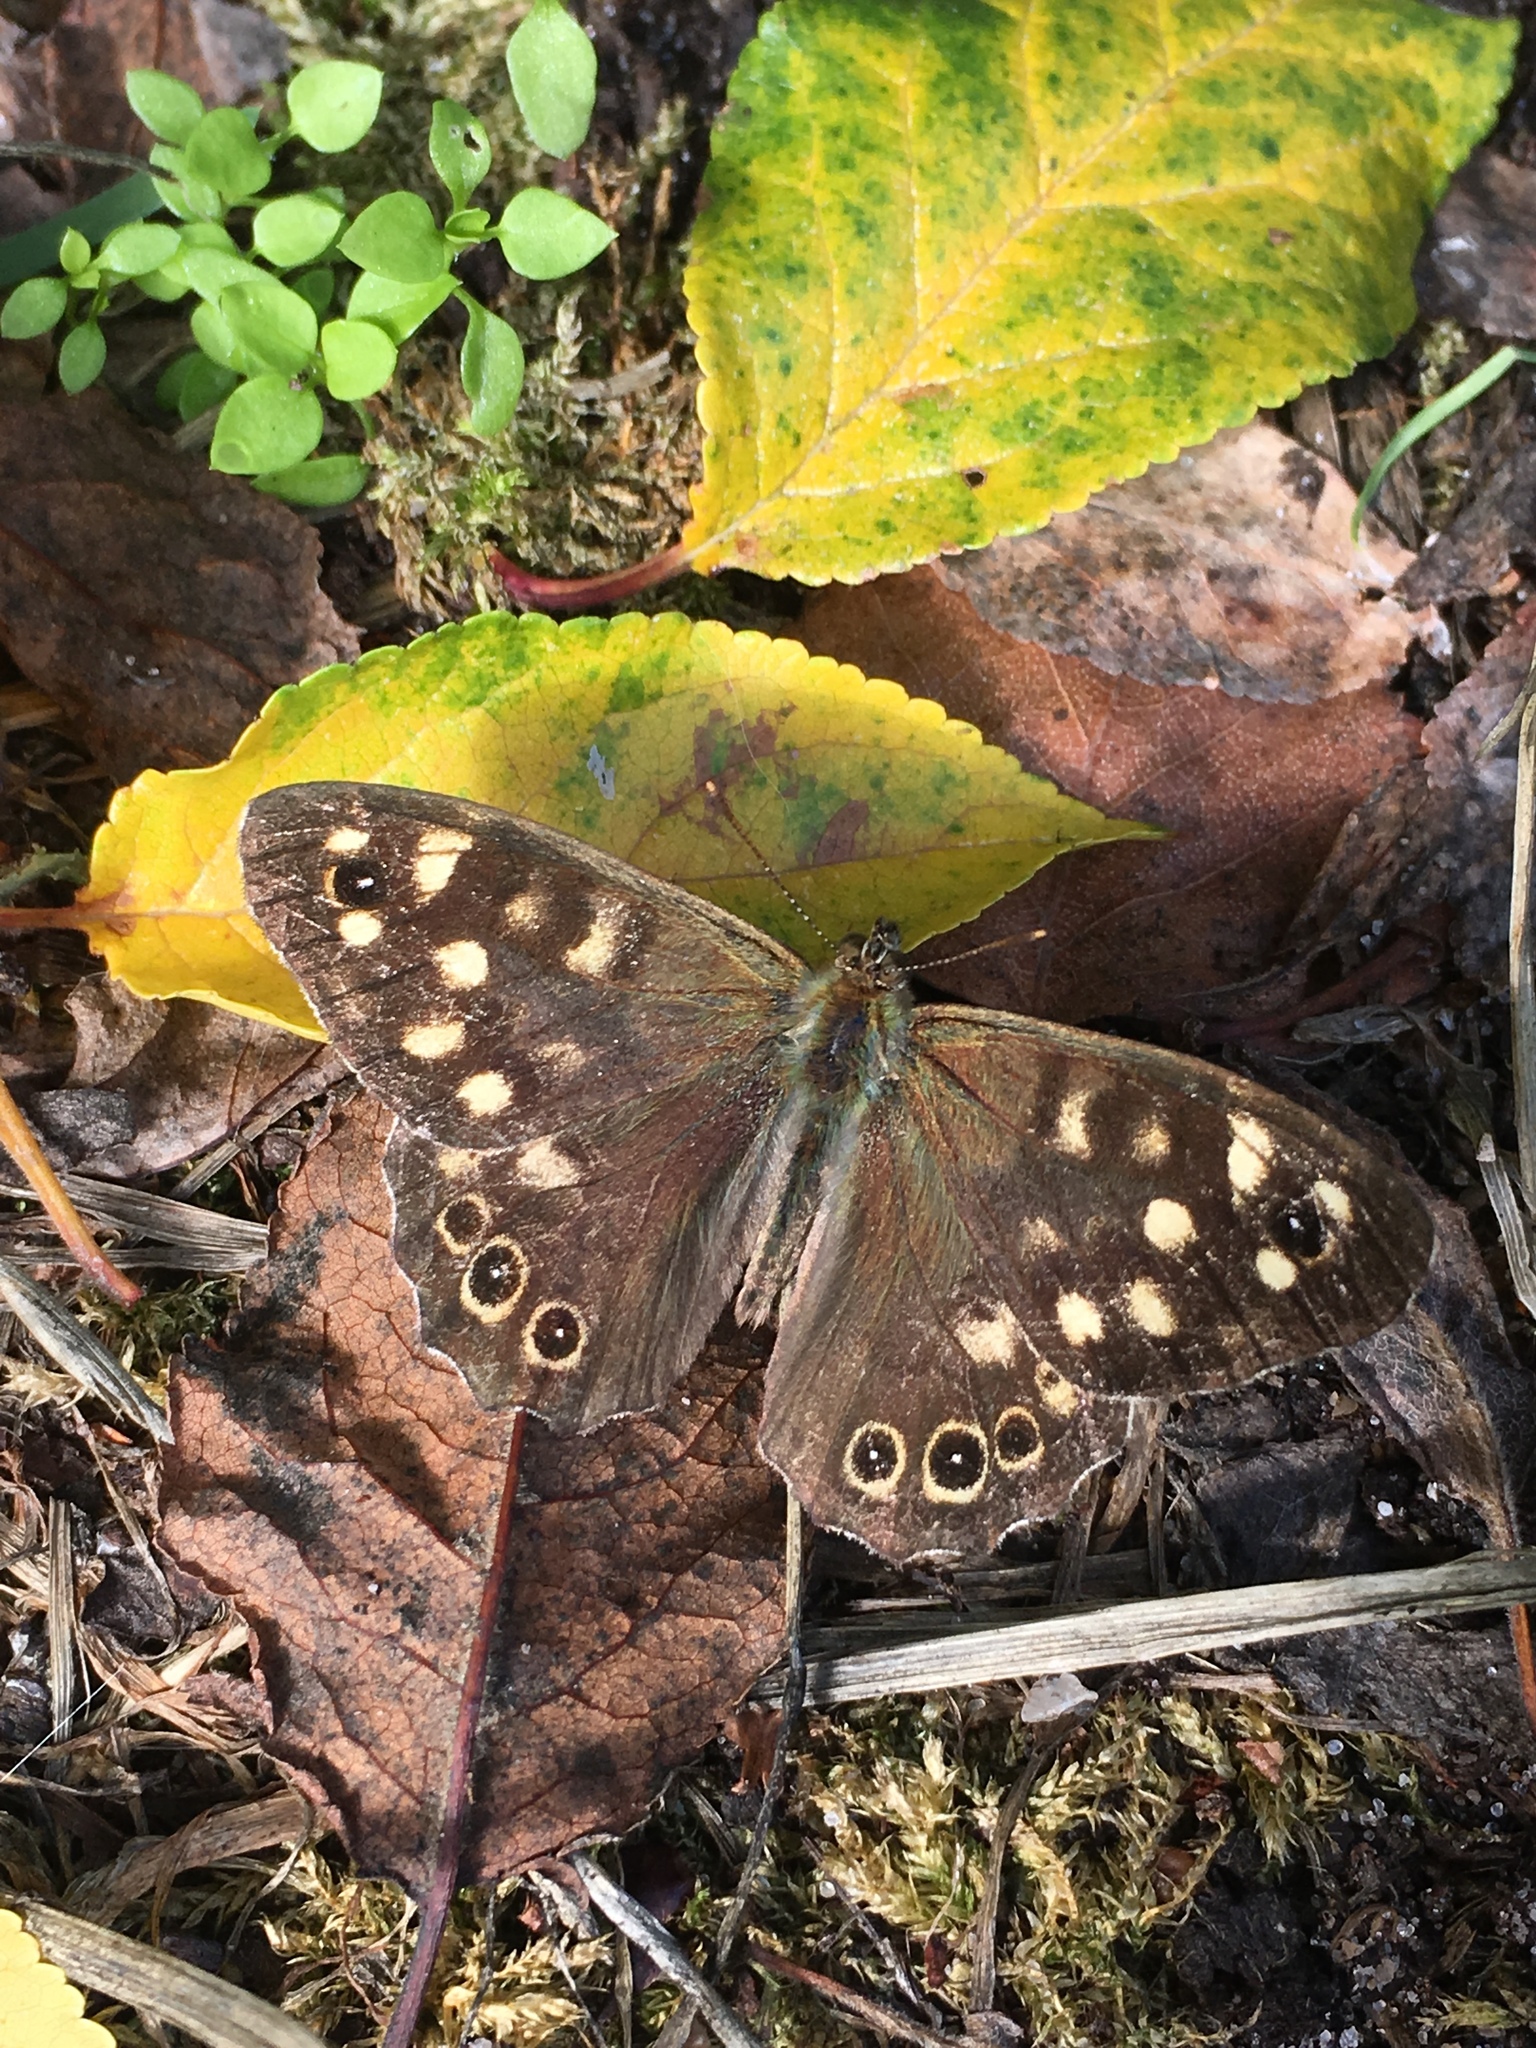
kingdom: Animalia
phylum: Arthropoda
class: Insecta
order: Lepidoptera
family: Nymphalidae
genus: Pararge
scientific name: Pararge aegeria
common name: Speckled wood
